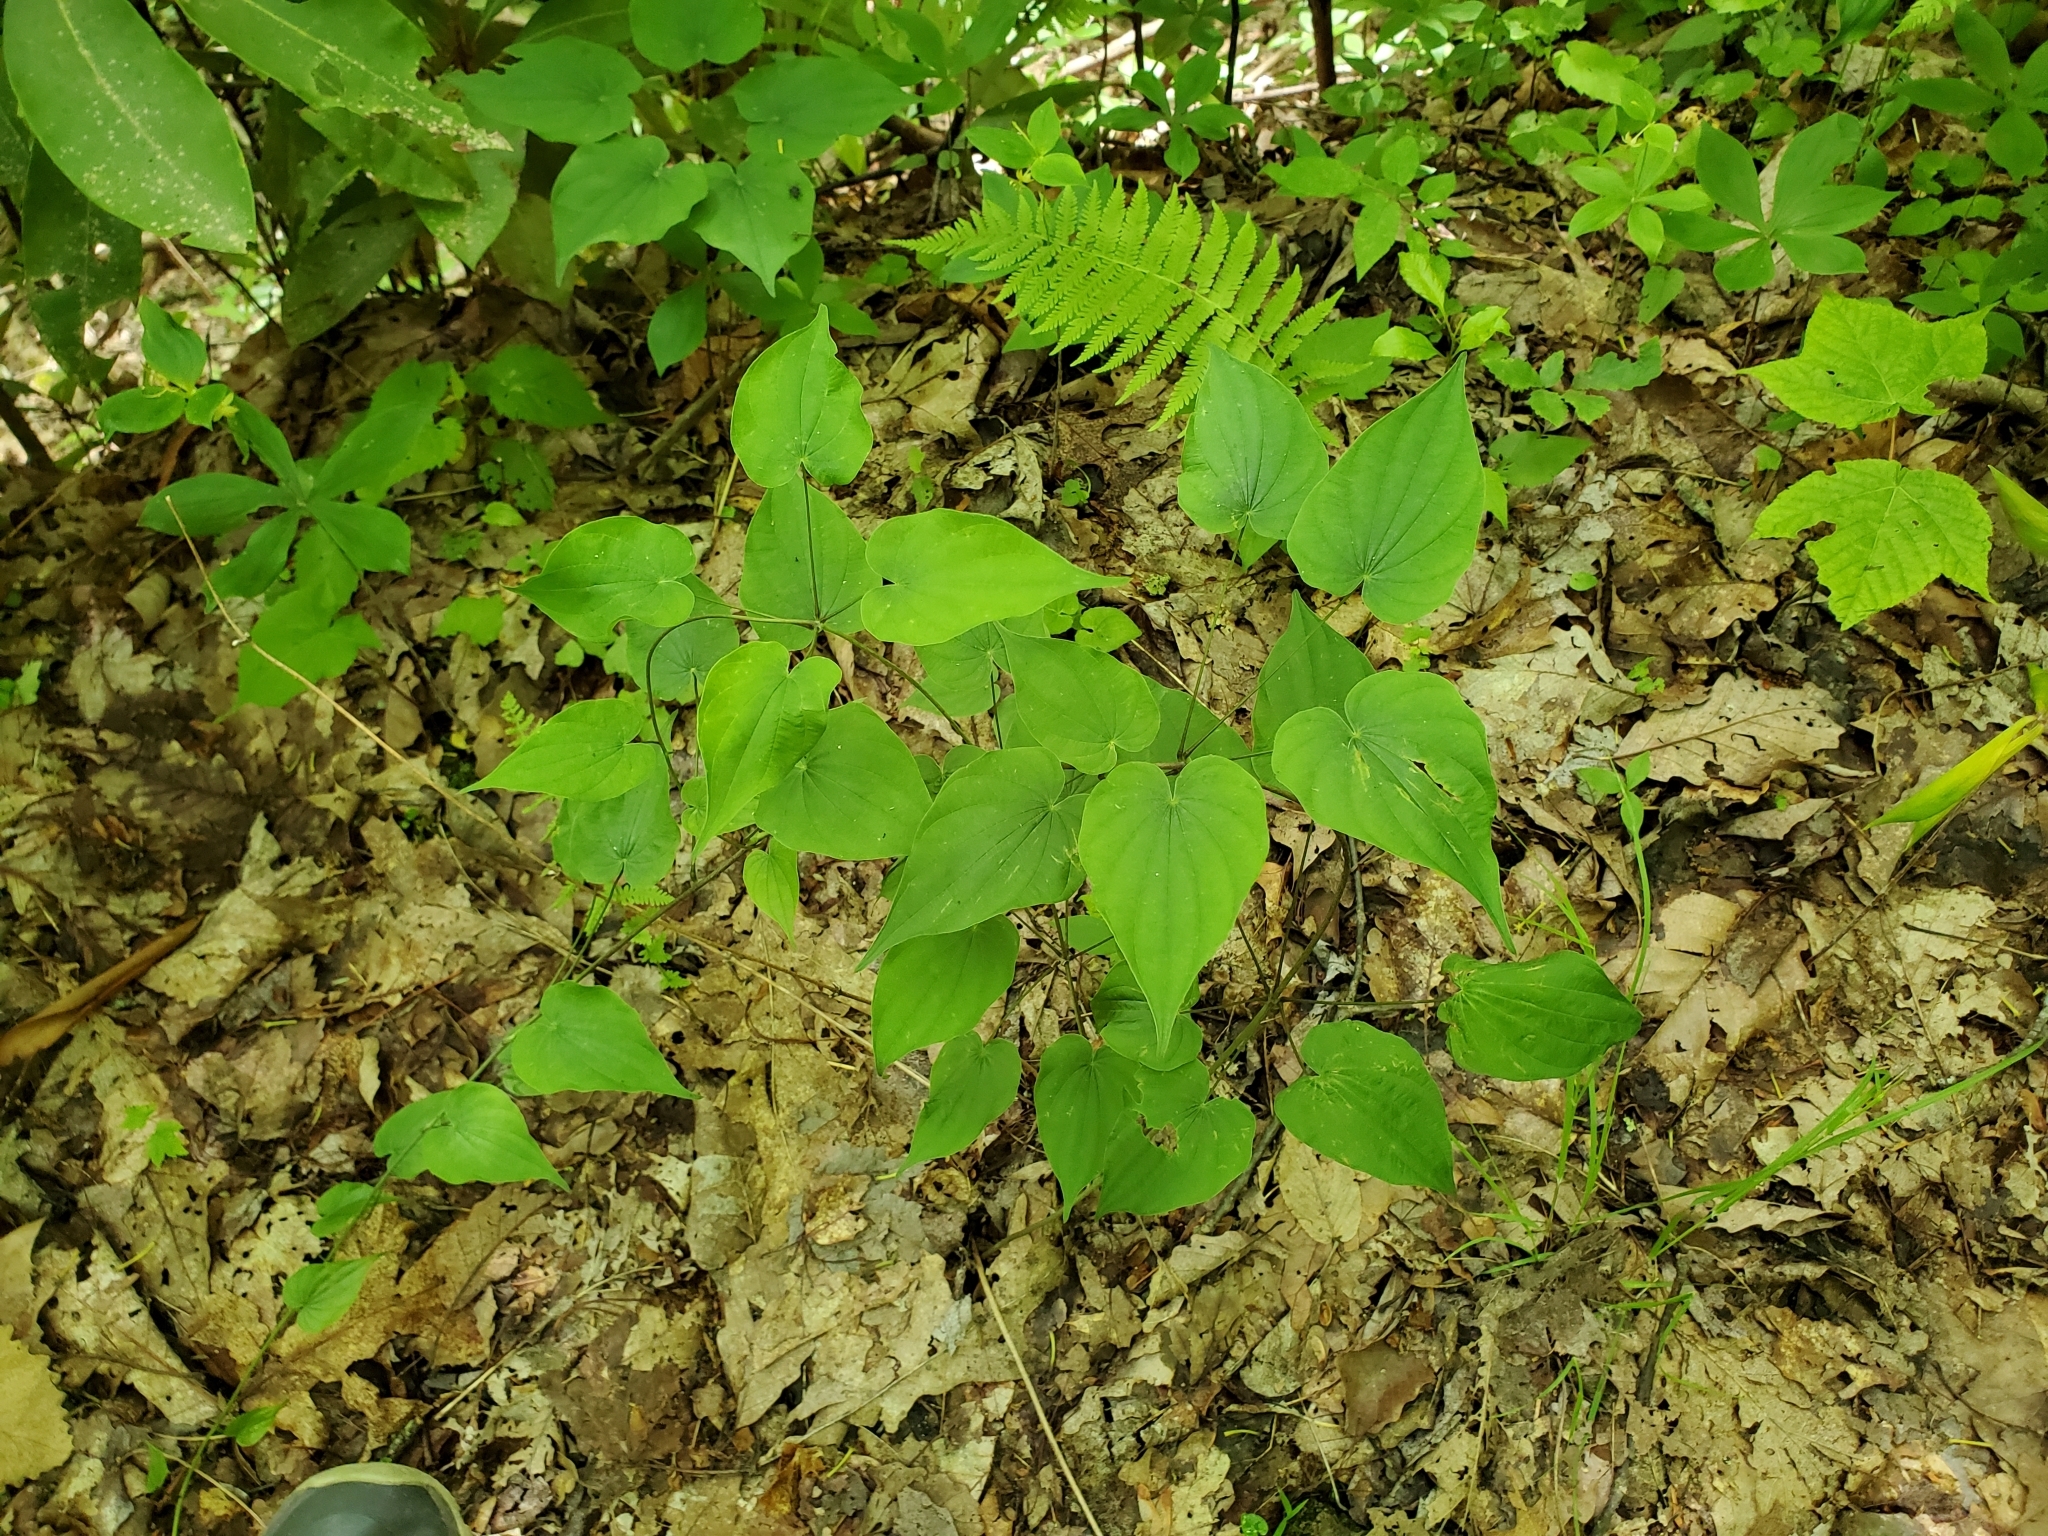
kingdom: Plantae
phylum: Tracheophyta
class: Liliopsida
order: Dioscoreales
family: Dioscoreaceae
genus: Dioscorea
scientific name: Dioscorea villosa
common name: Wild yam
